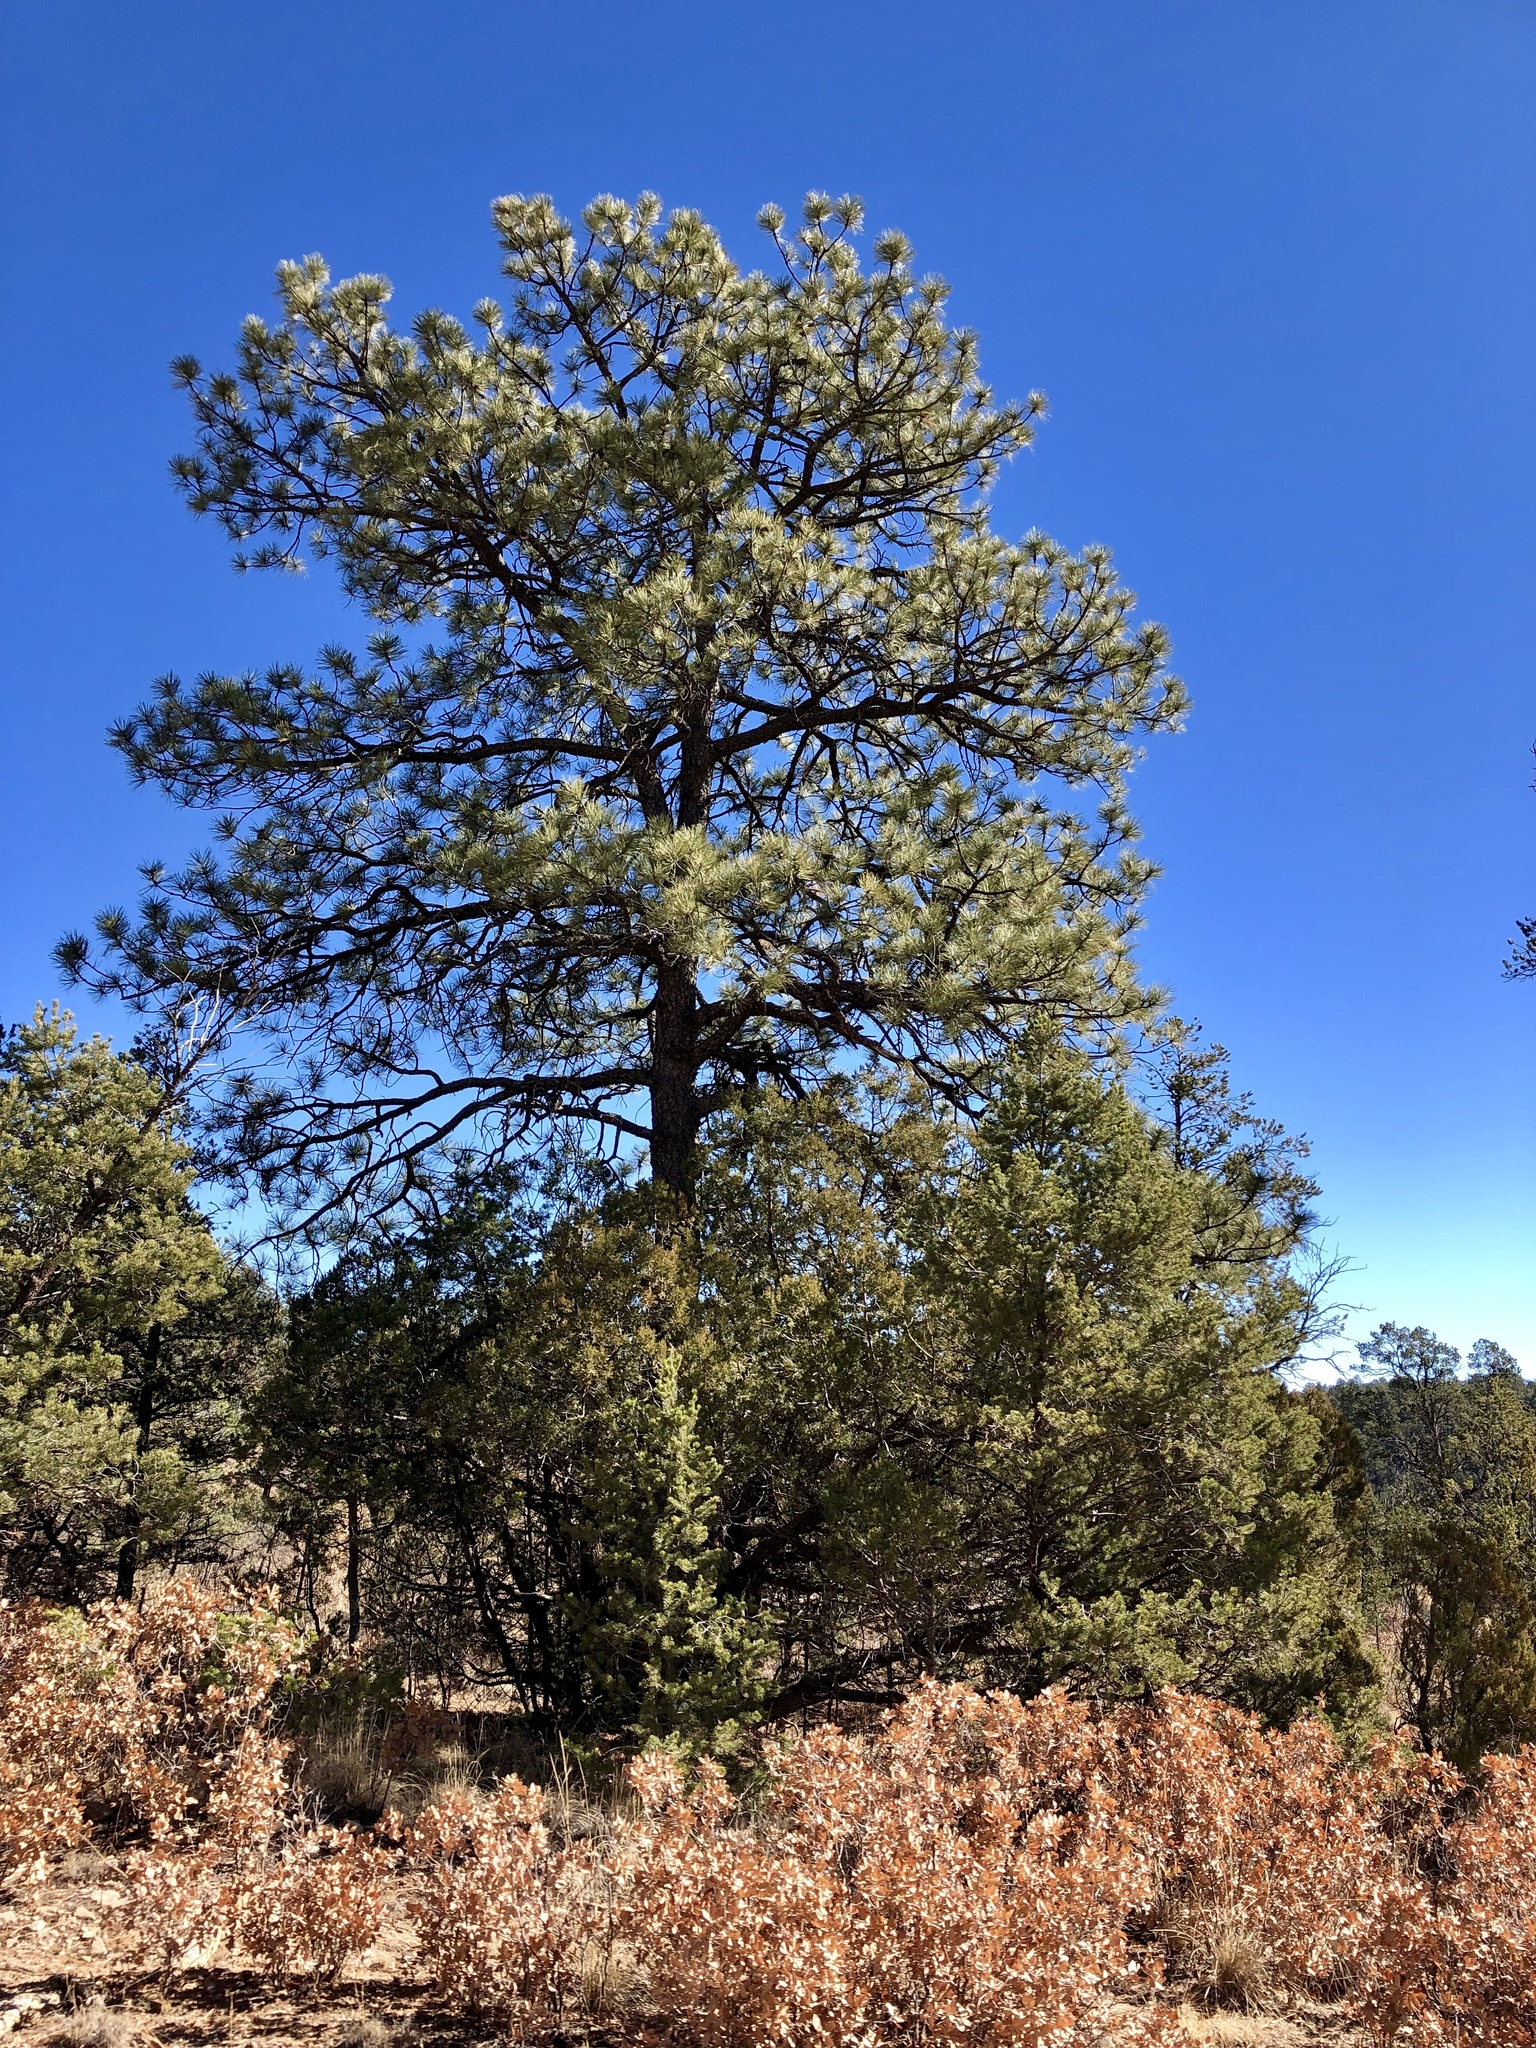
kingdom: Plantae
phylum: Tracheophyta
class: Pinopsida
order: Pinales
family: Pinaceae
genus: Pinus
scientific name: Pinus ponderosa
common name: Western yellow-pine
